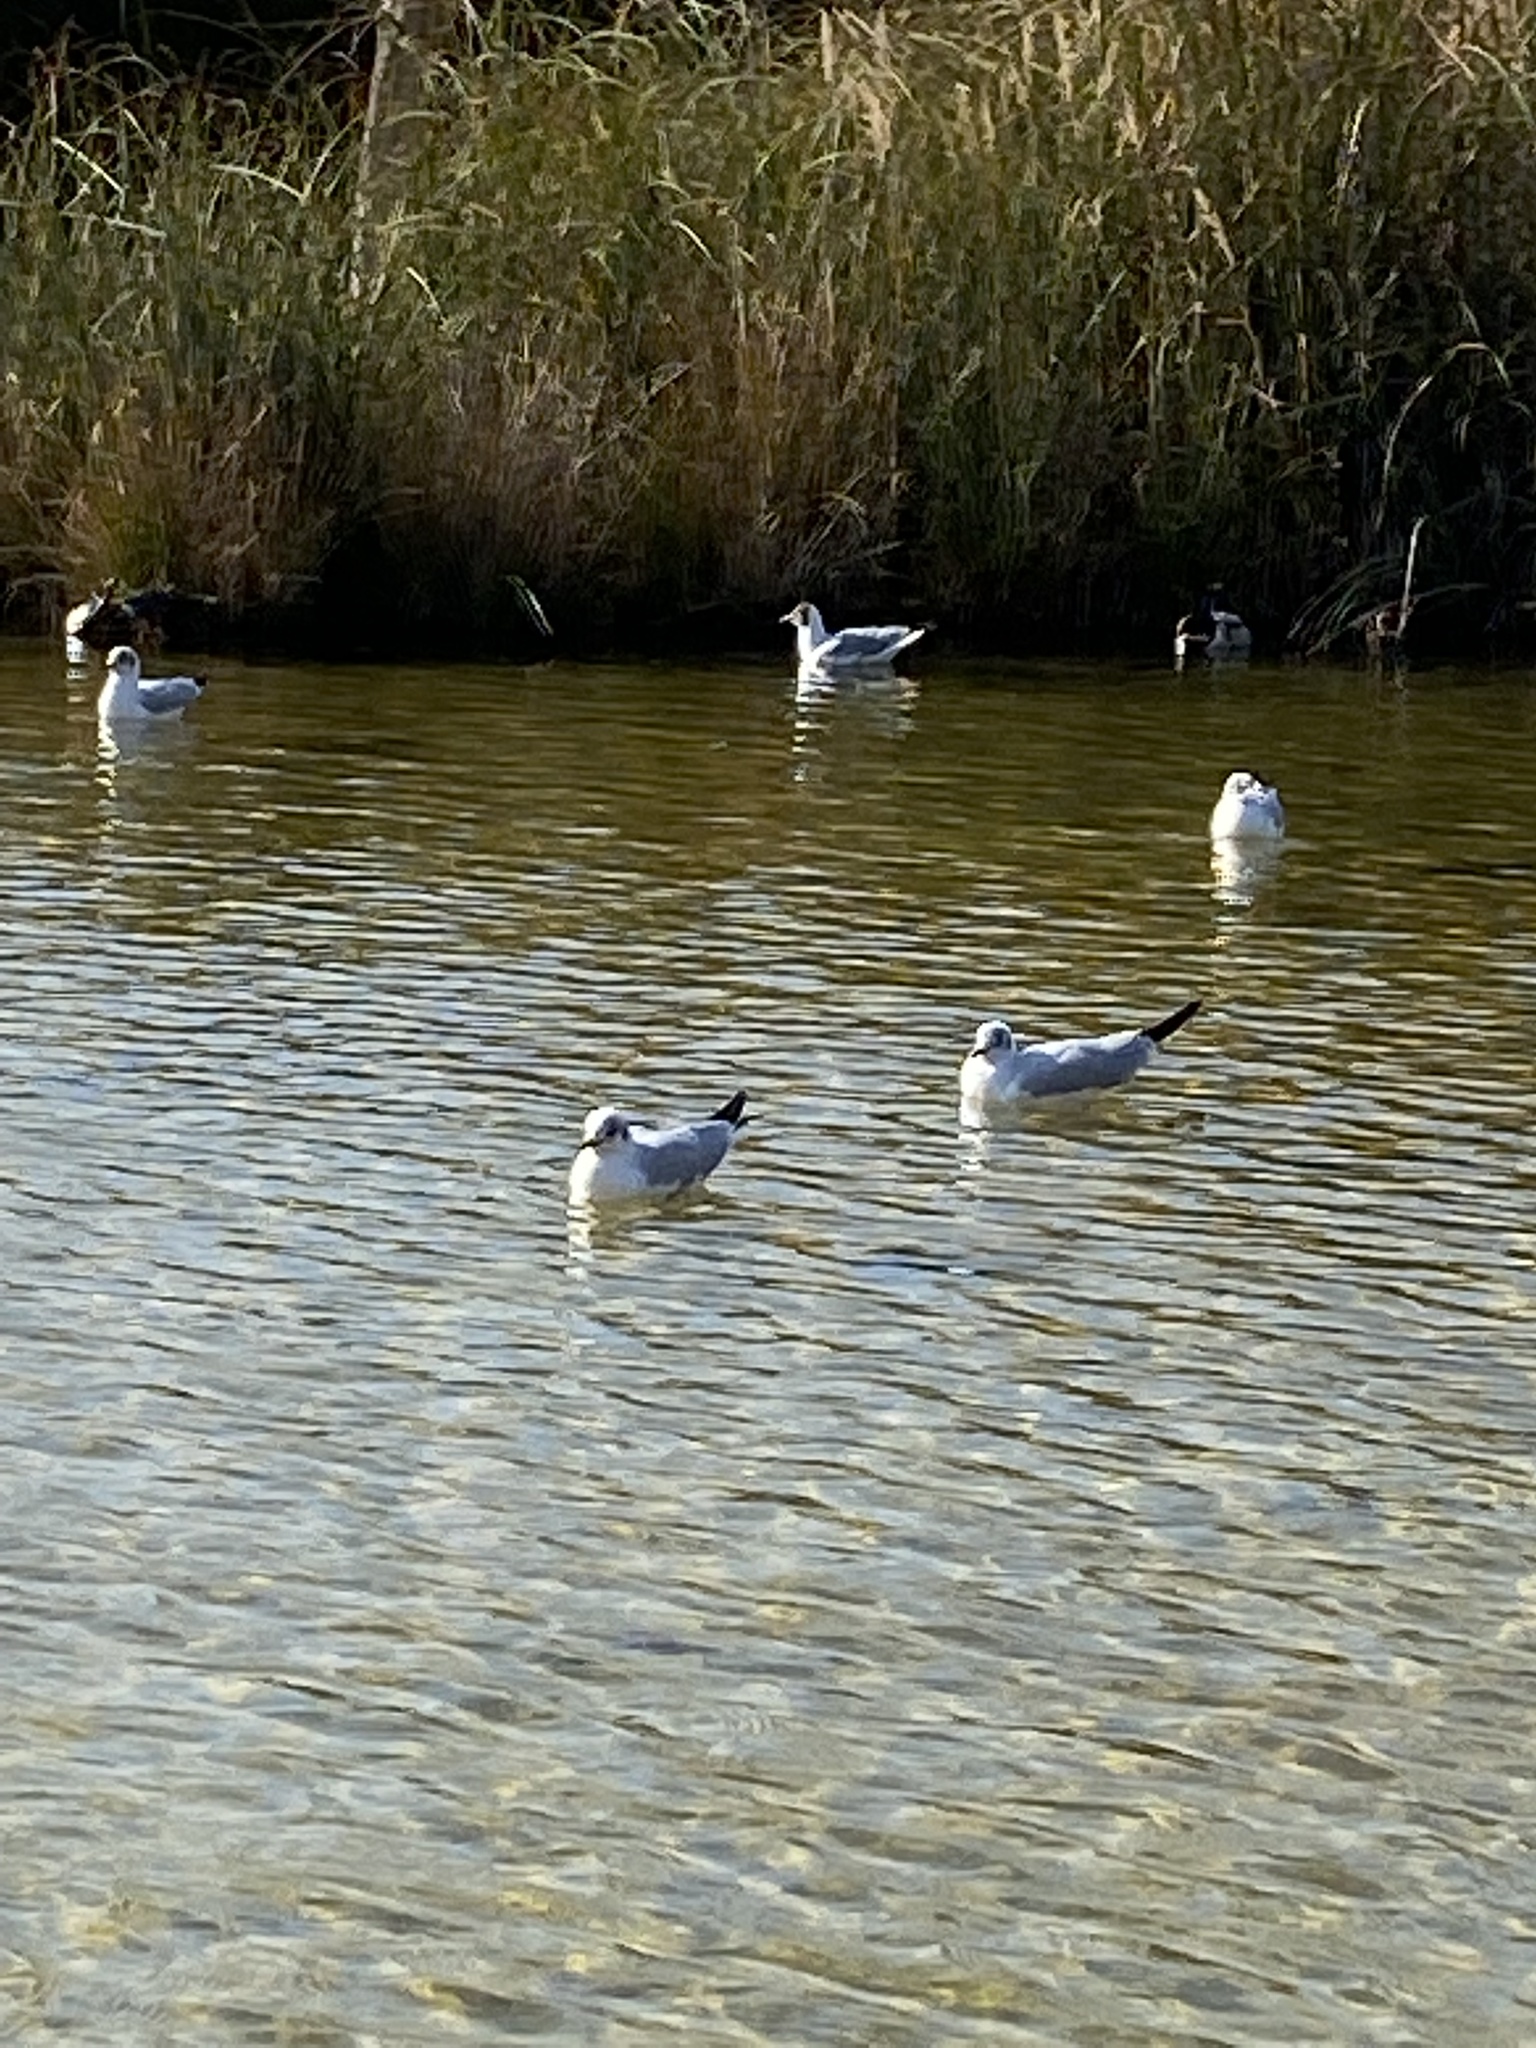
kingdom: Animalia
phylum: Chordata
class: Aves
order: Charadriiformes
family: Laridae
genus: Chroicocephalus
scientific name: Chroicocephalus ridibundus
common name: Black-headed gull
